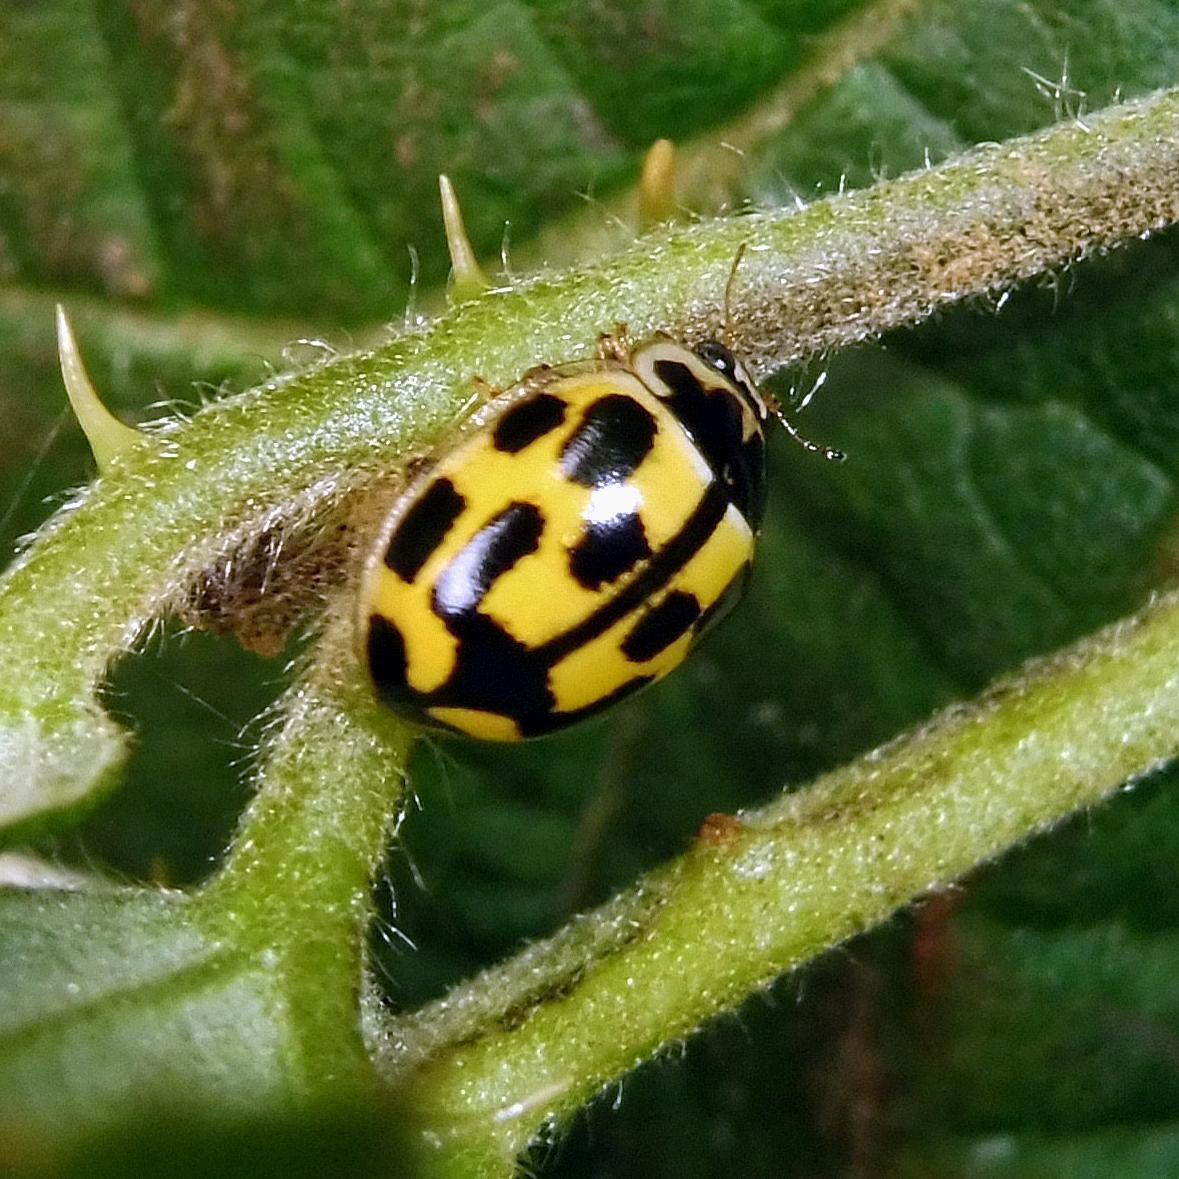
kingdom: Animalia
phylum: Arthropoda
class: Insecta
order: Coleoptera
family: Coccinellidae
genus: Propylaea
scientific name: Propylaea quatuordecimpunctata
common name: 14-spotted ladybird beetle
